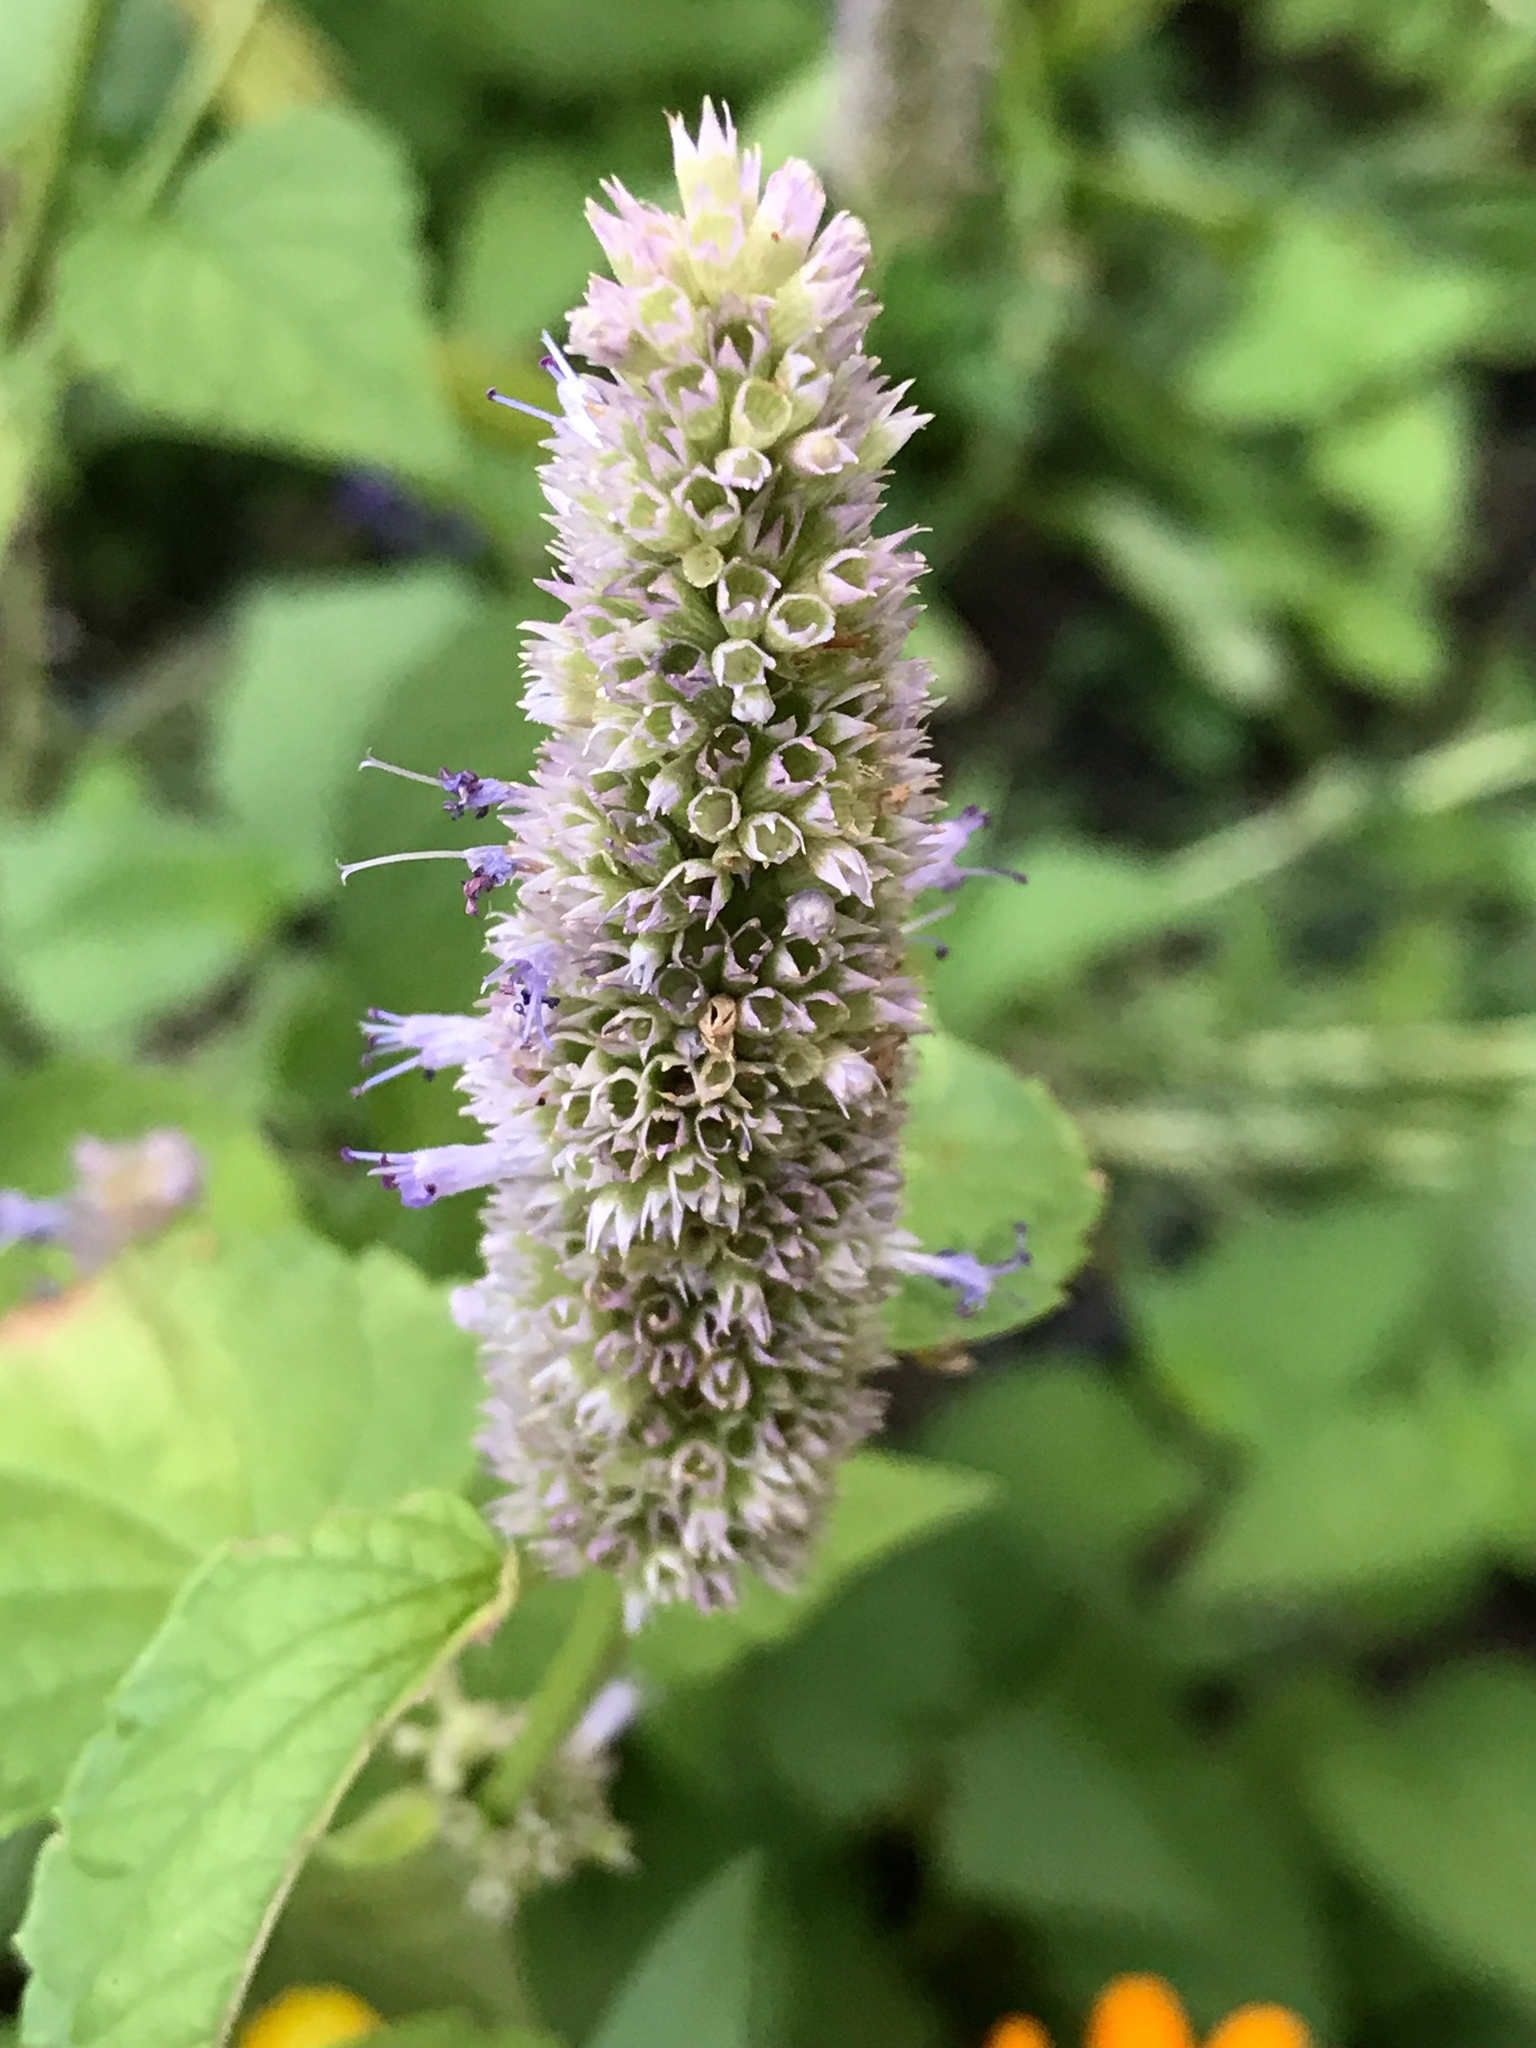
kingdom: Animalia
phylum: Chordata
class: Aves
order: Passeriformes
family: Fringillidae
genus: Spinus
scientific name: Spinus tristis
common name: American goldfinch
